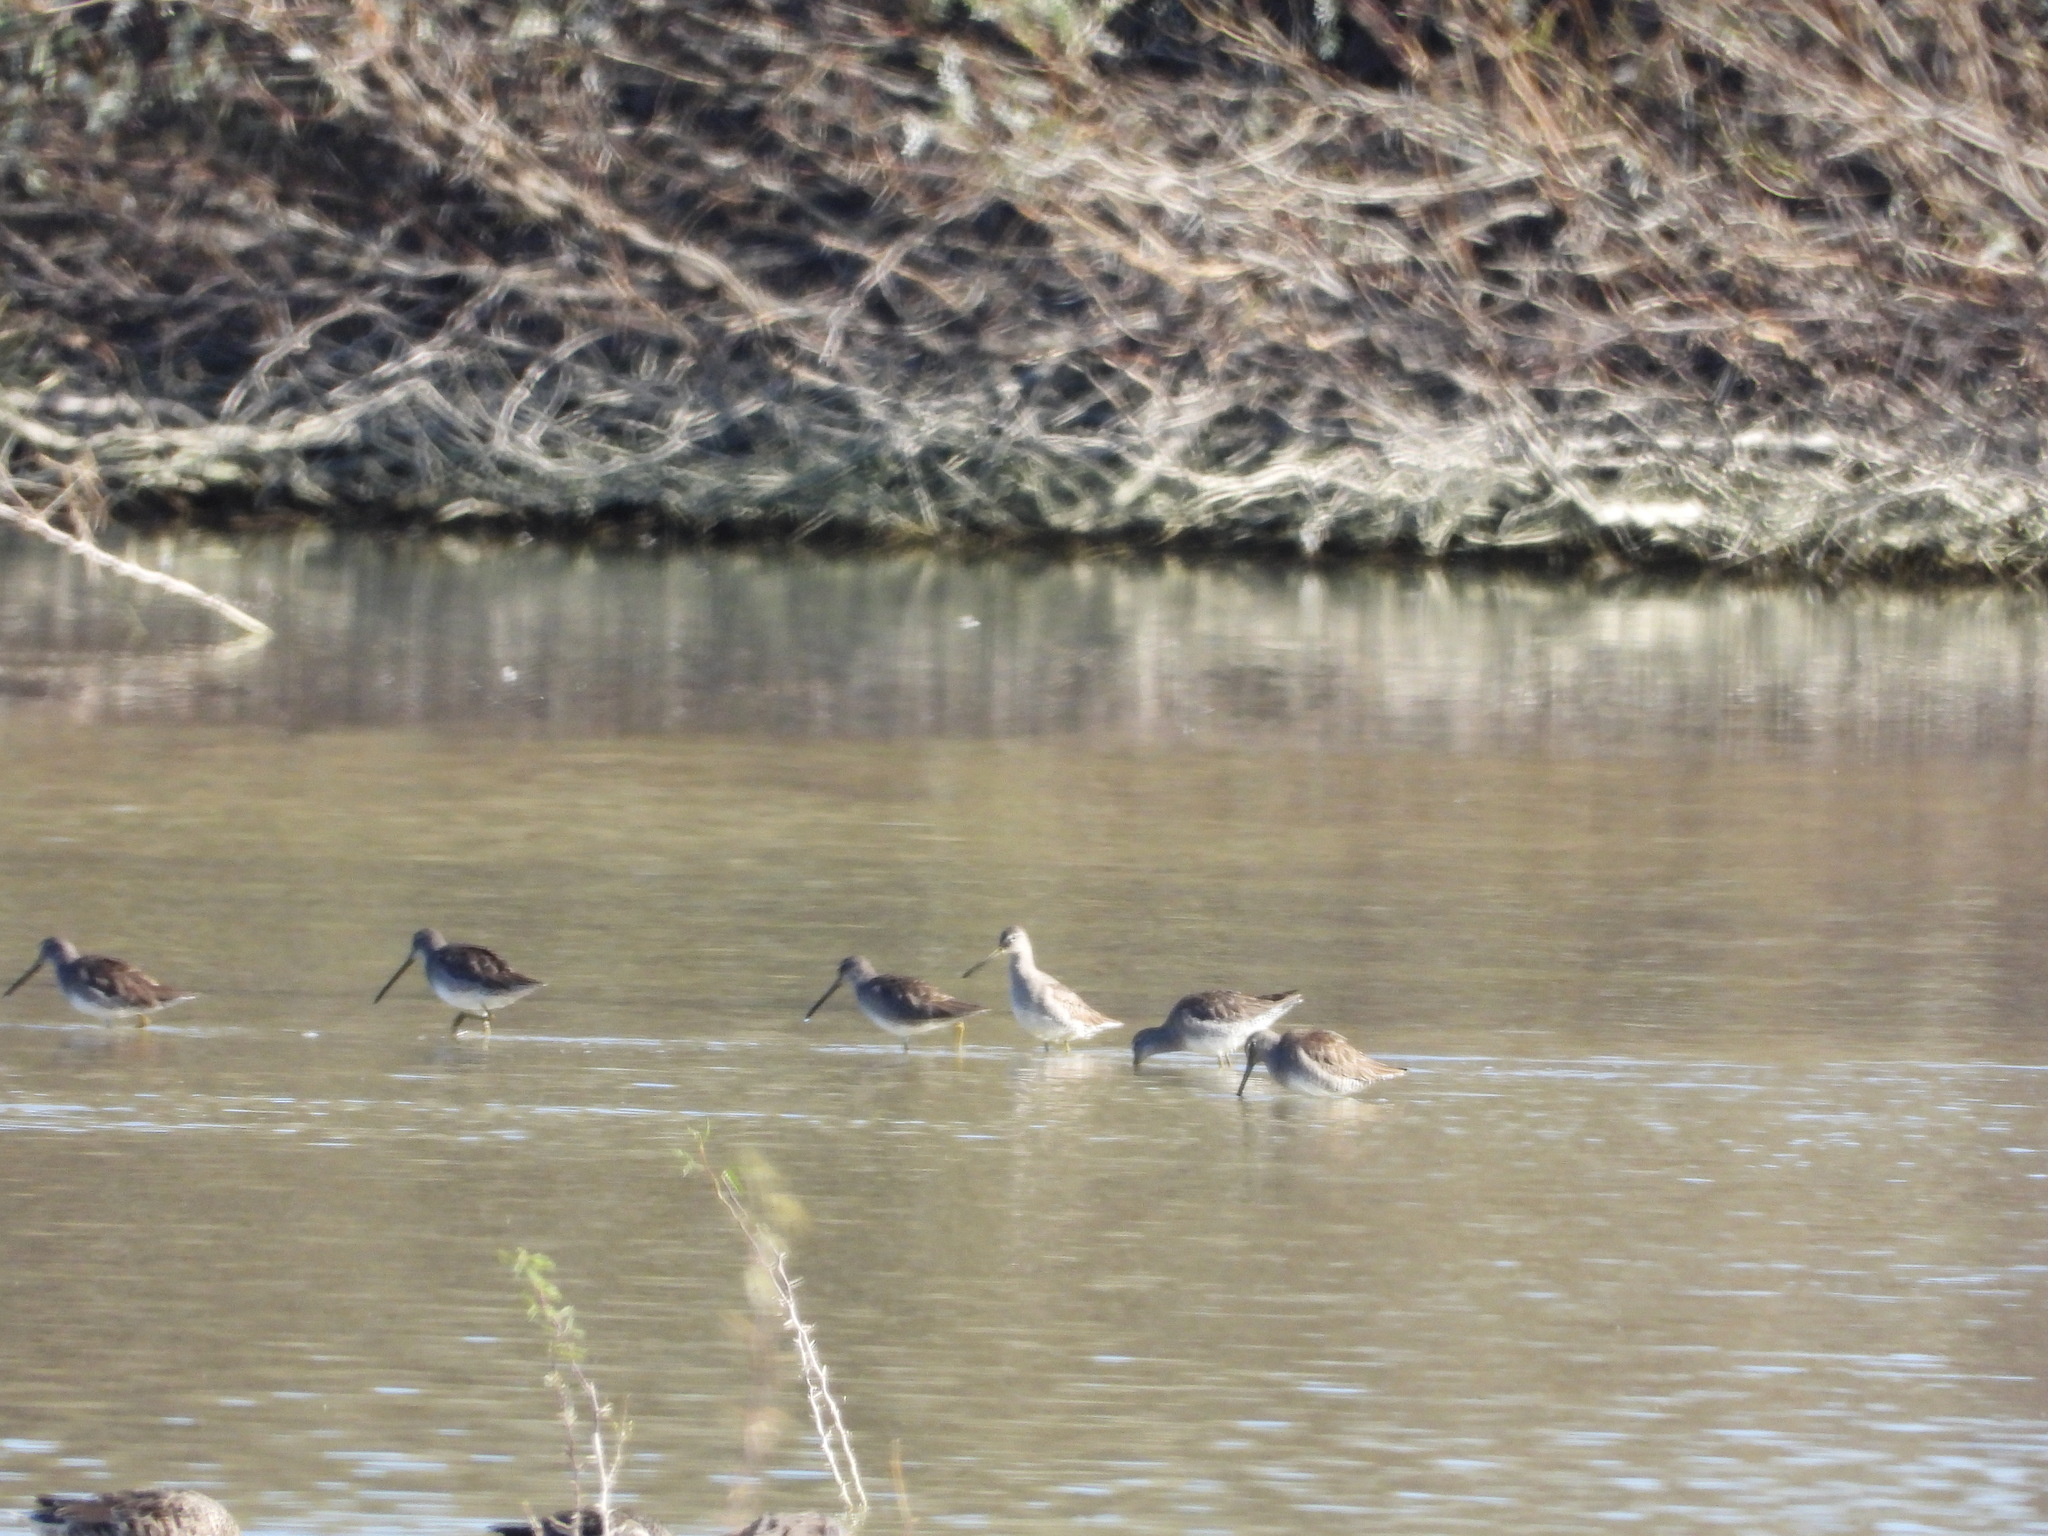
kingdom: Animalia
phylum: Chordata
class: Aves
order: Charadriiformes
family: Scolopacidae
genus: Limnodromus
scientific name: Limnodromus scolopaceus
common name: Long-billed dowitcher
